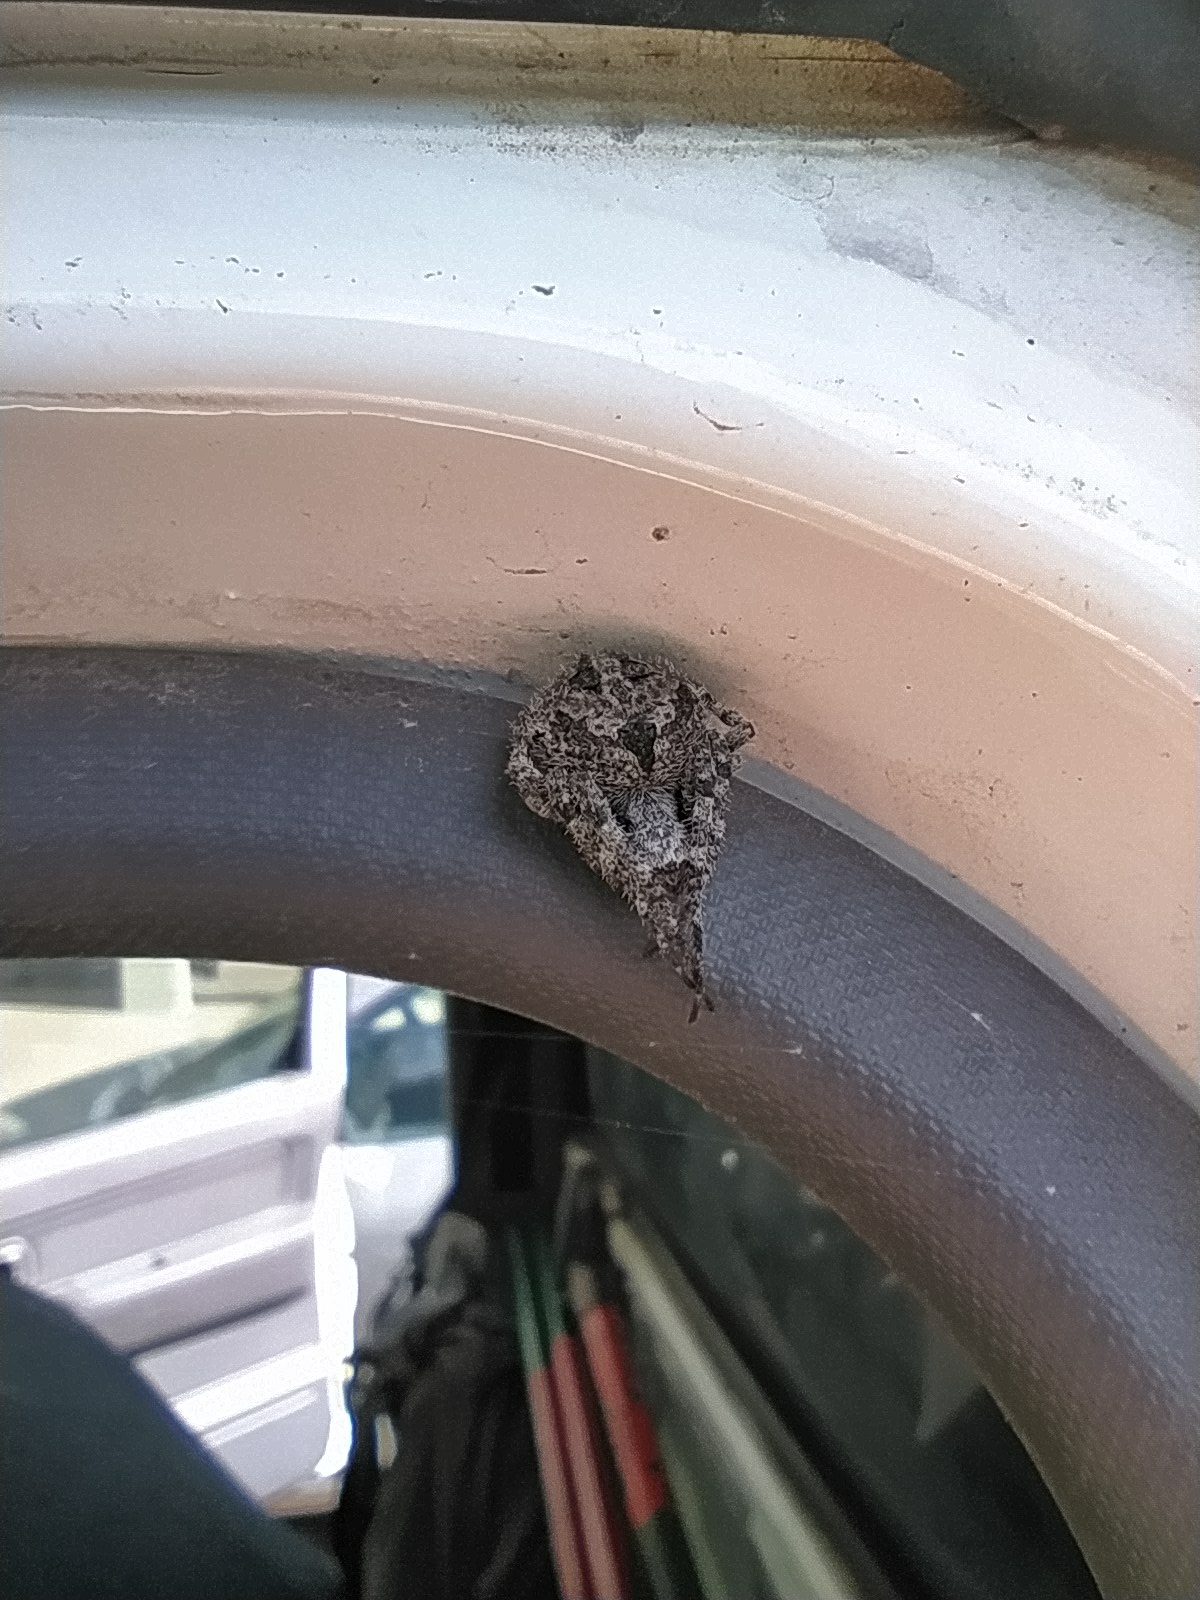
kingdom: Animalia
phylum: Arthropoda
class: Arachnida
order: Araneae
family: Araneidae
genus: Neoscona
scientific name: Neoscona subfusca
